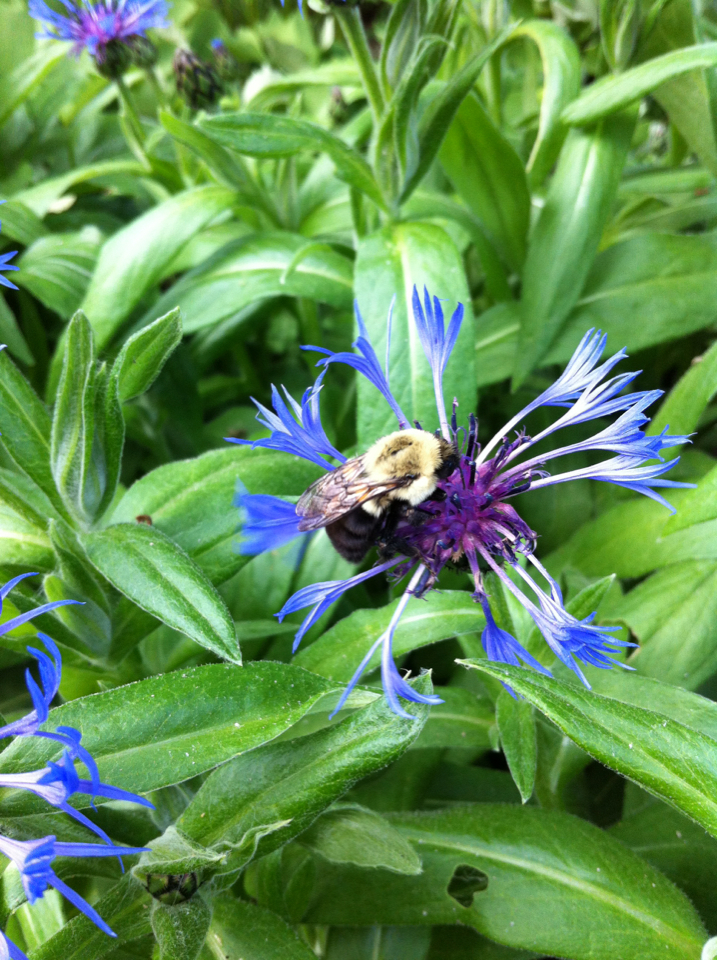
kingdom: Animalia
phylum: Arthropoda
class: Insecta
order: Hymenoptera
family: Apidae
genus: Bombus
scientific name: Bombus impatiens
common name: Common eastern bumble bee
